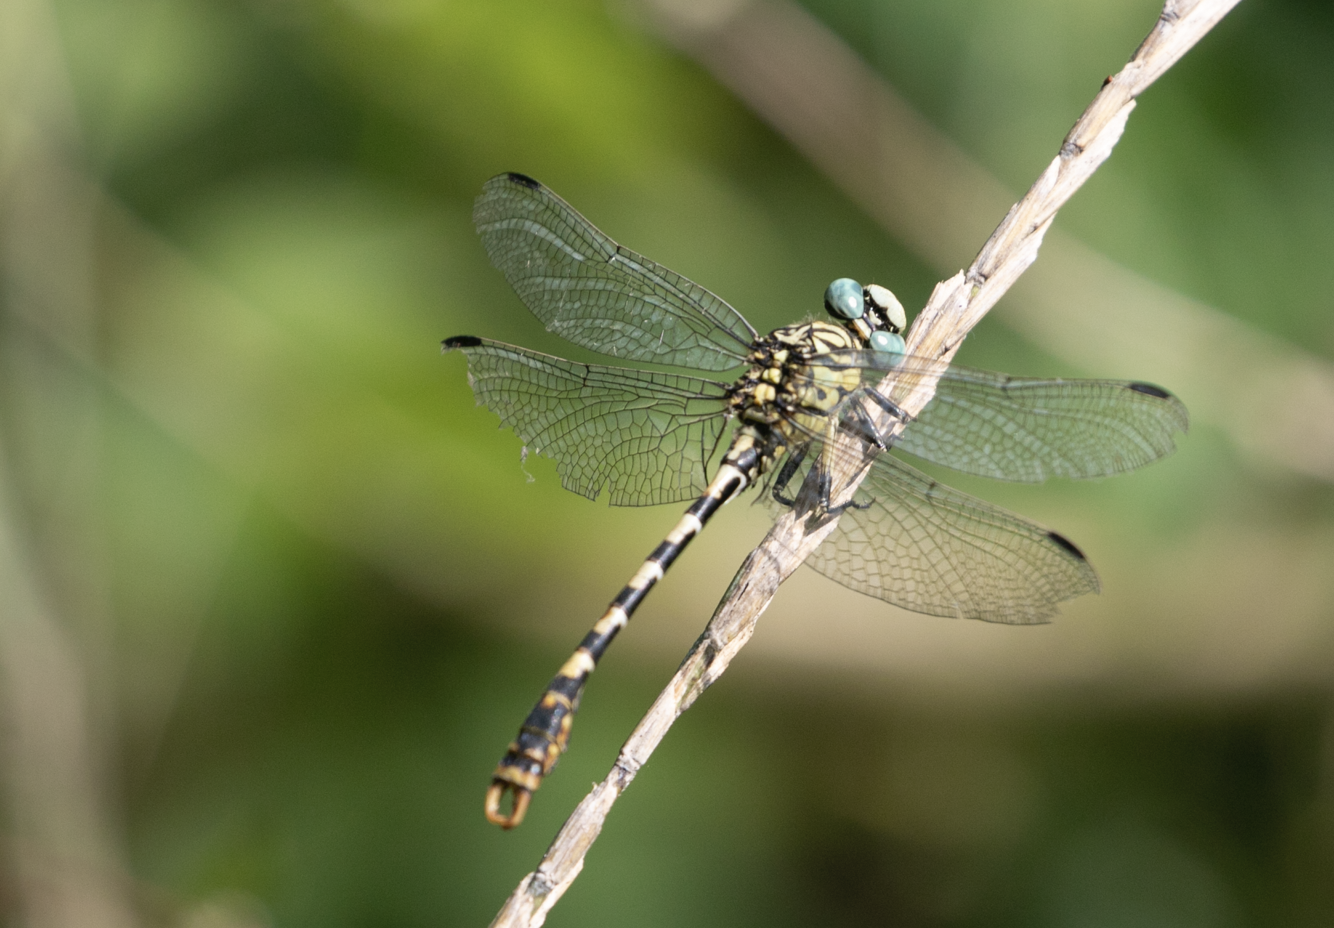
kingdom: Animalia
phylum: Arthropoda
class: Insecta
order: Odonata
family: Gomphidae
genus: Onychogomphus
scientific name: Onychogomphus forcipatus
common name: Small pincertail
